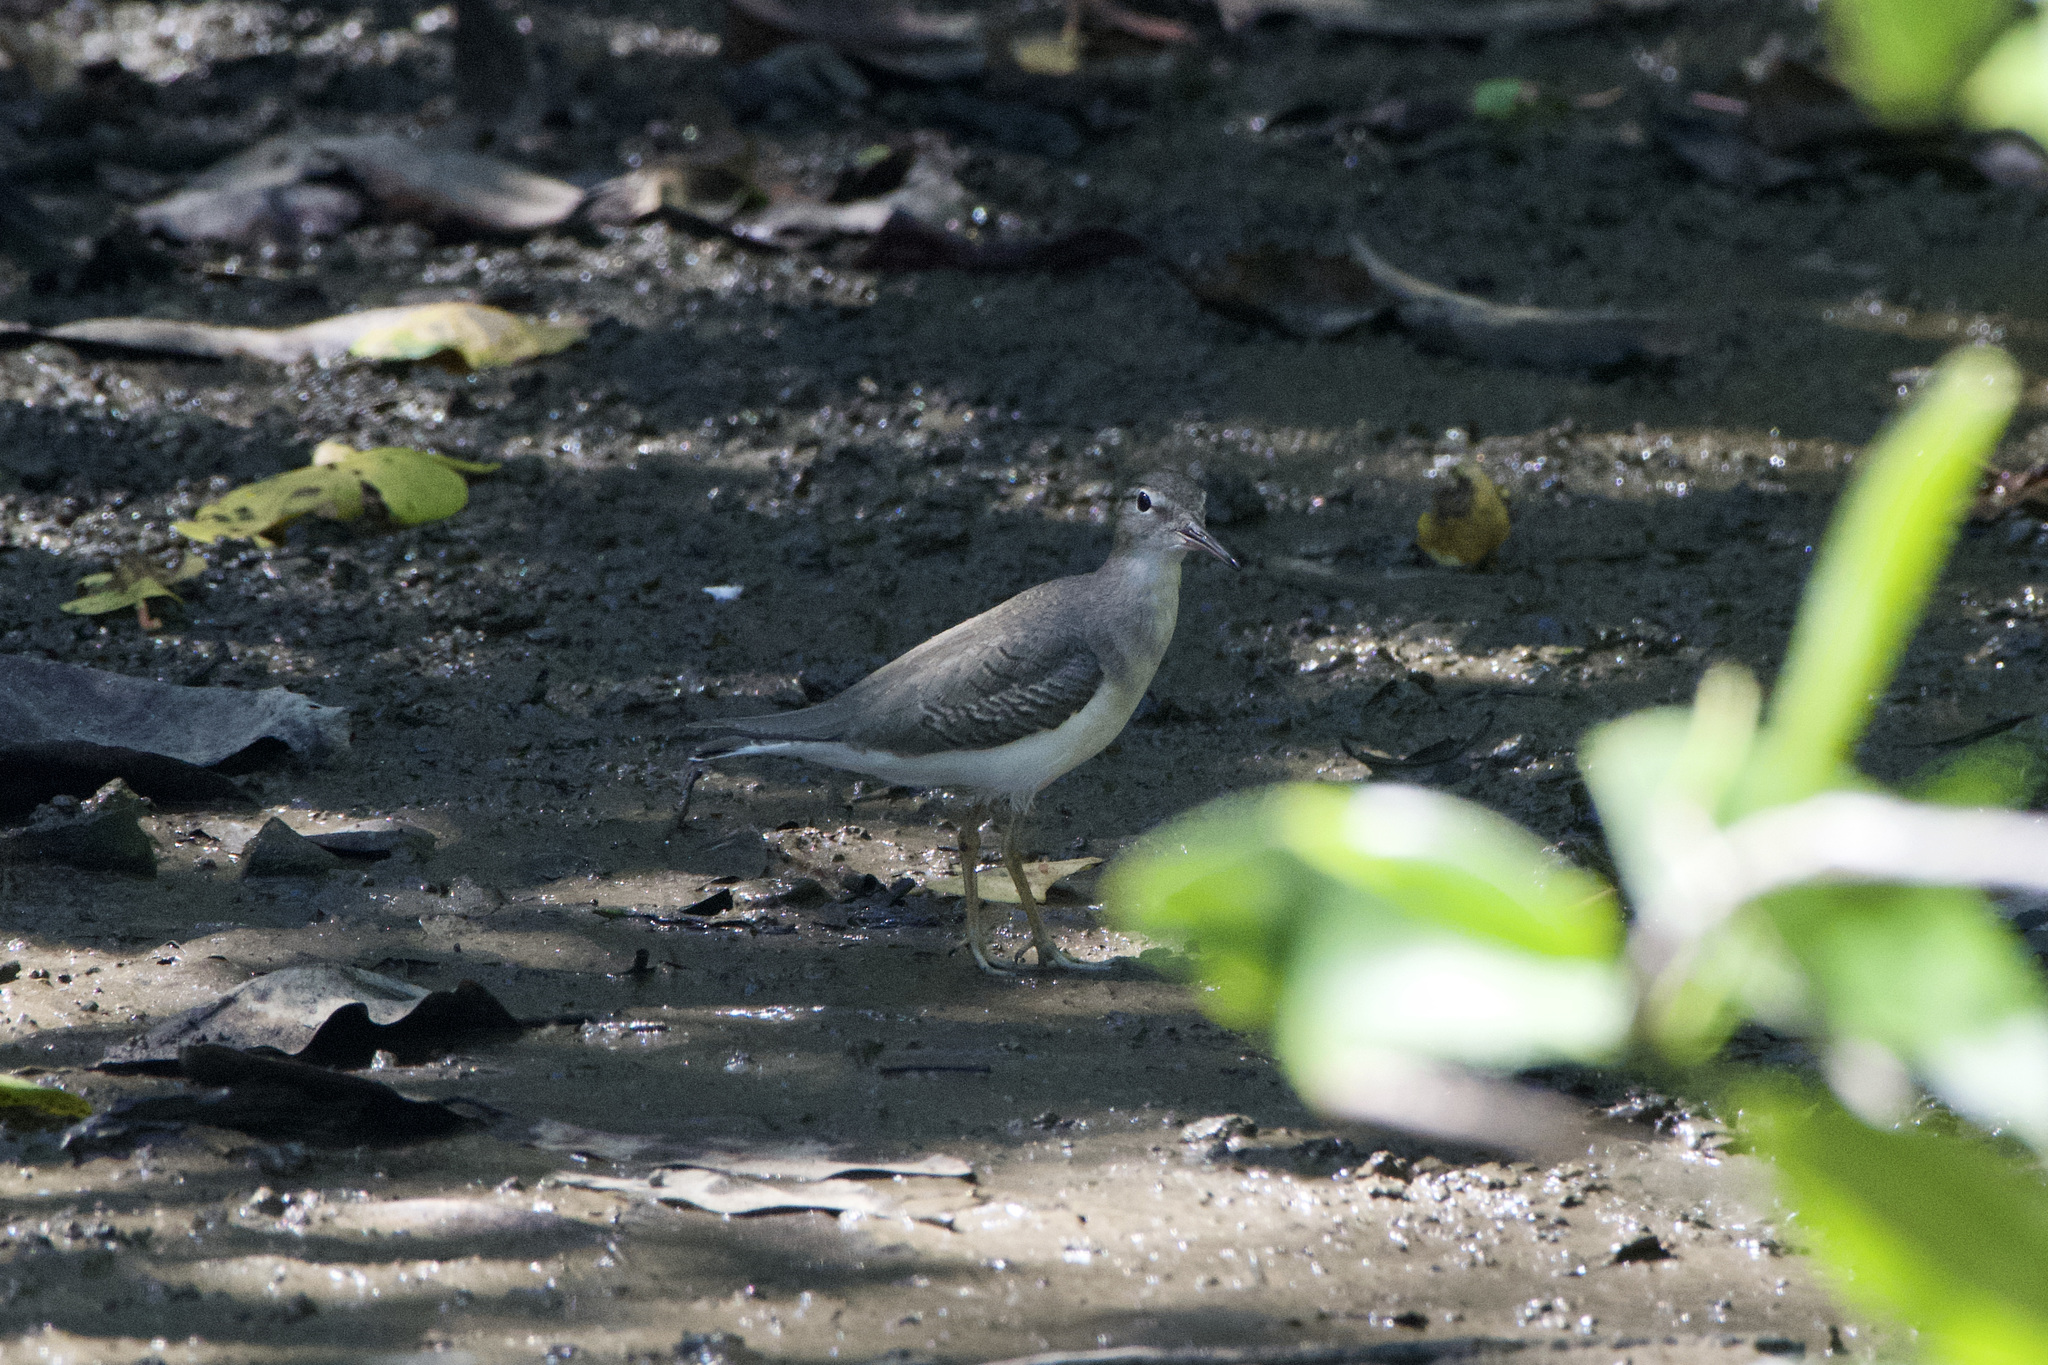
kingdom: Animalia
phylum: Chordata
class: Aves
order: Charadriiformes
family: Scolopacidae
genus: Actitis
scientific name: Actitis macularius
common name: Spotted sandpiper
